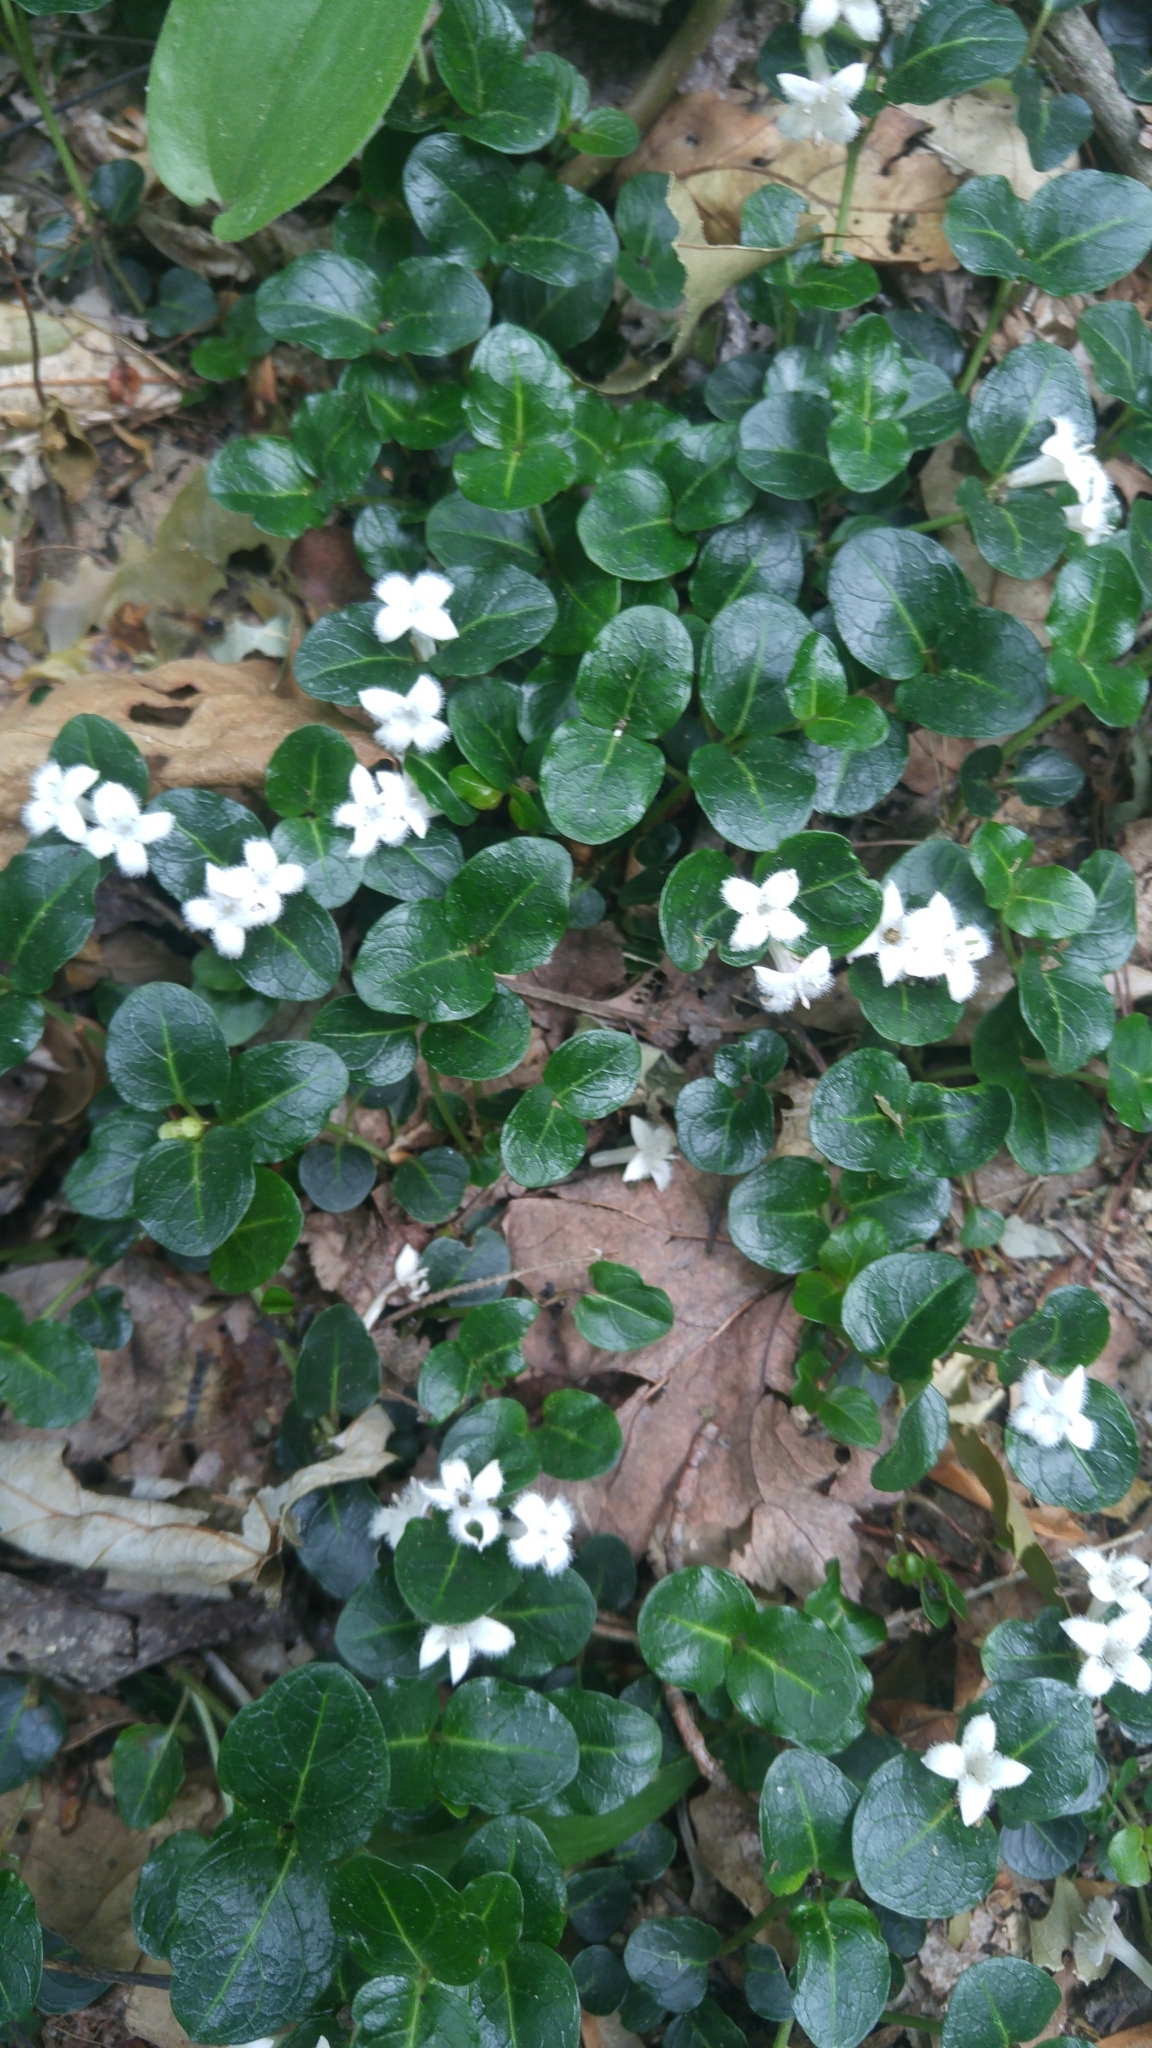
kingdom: Plantae
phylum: Tracheophyta
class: Magnoliopsida
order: Gentianales
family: Rubiaceae
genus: Mitchella
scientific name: Mitchella repens
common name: Partridge-berry
